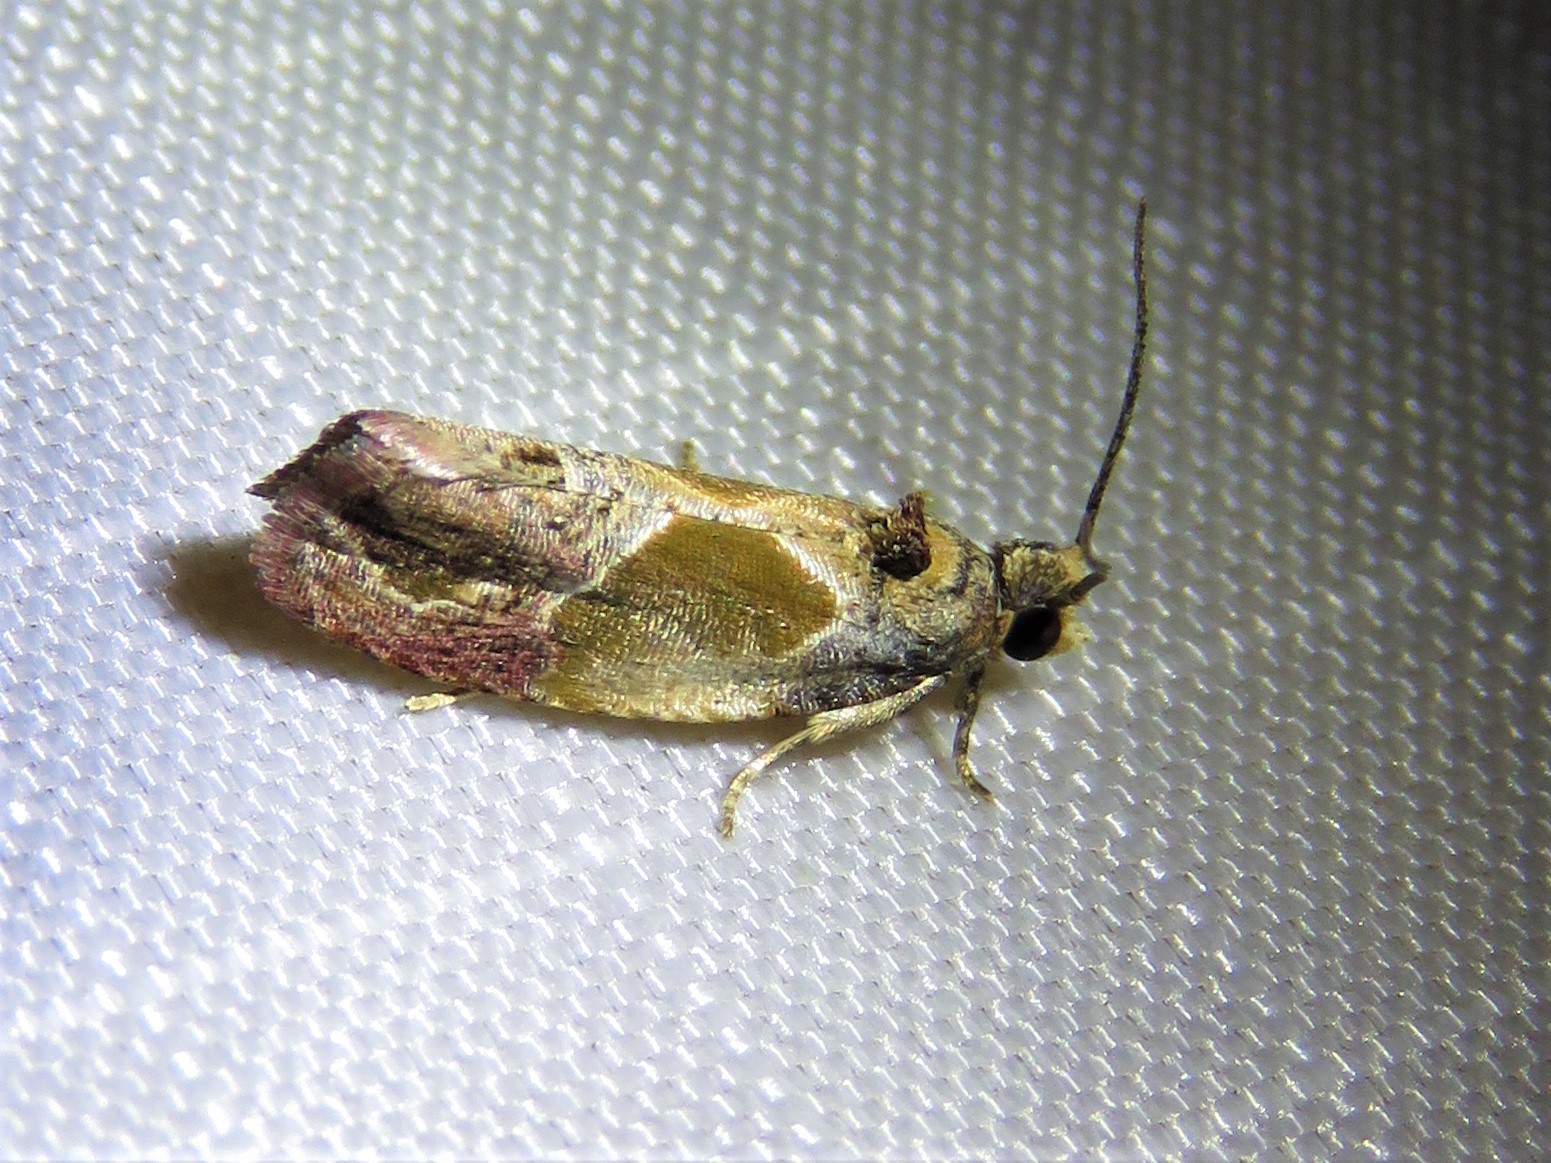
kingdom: Animalia
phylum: Arthropoda
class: Insecta
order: Lepidoptera
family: Tortricidae
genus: Eumarozia
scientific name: Eumarozia malachitana
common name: Sculptured moth
